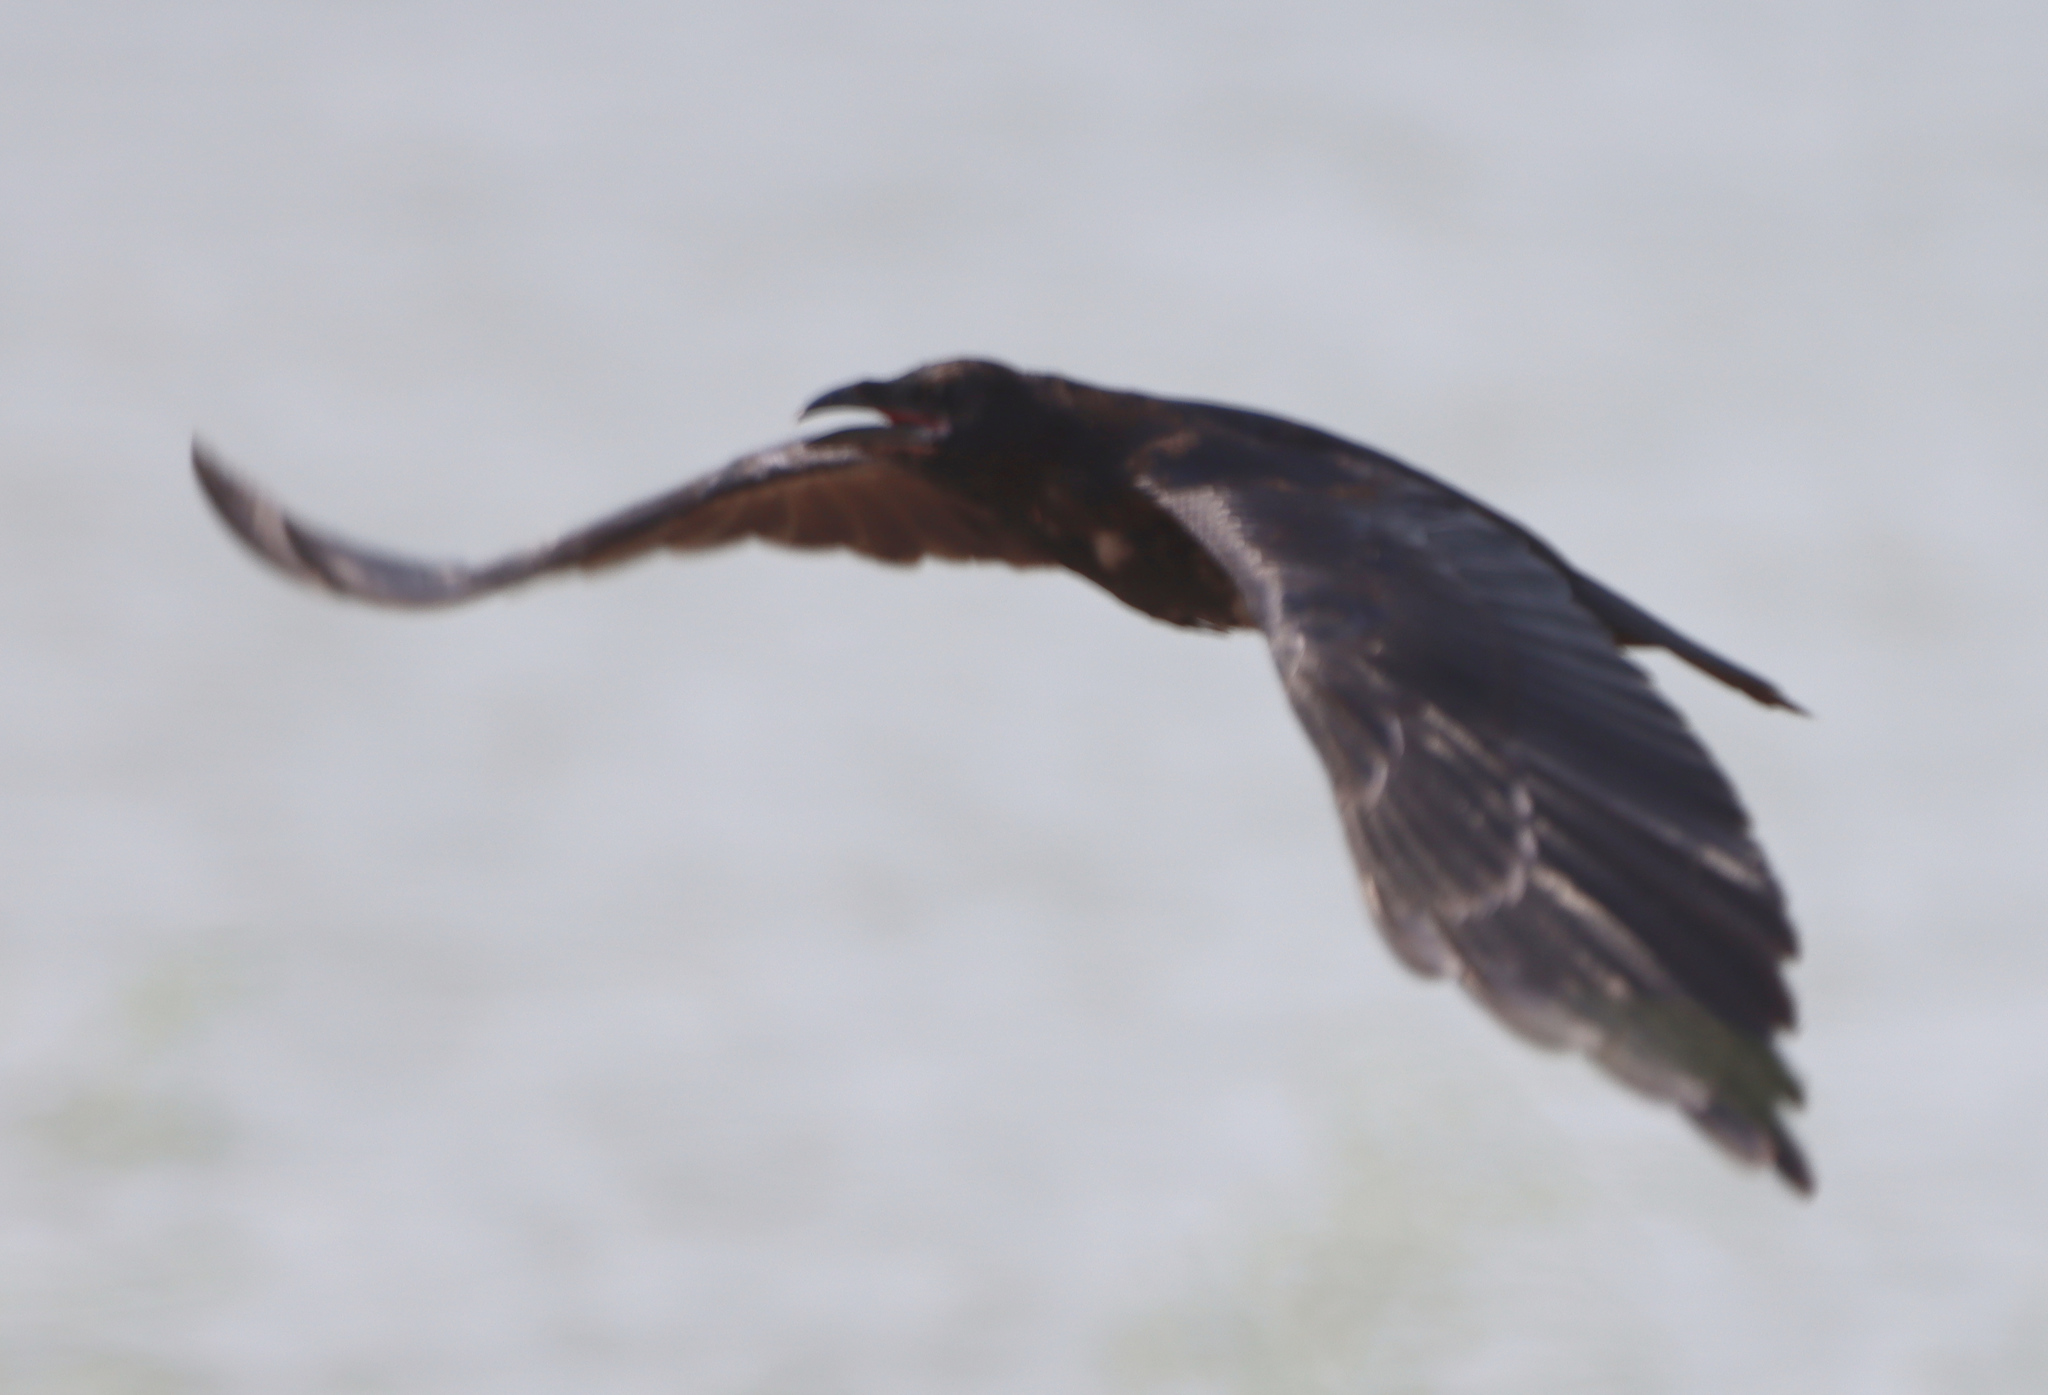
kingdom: Animalia
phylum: Chordata
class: Aves
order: Passeriformes
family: Corvidae
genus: Corvus
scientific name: Corvus corax
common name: Common raven
